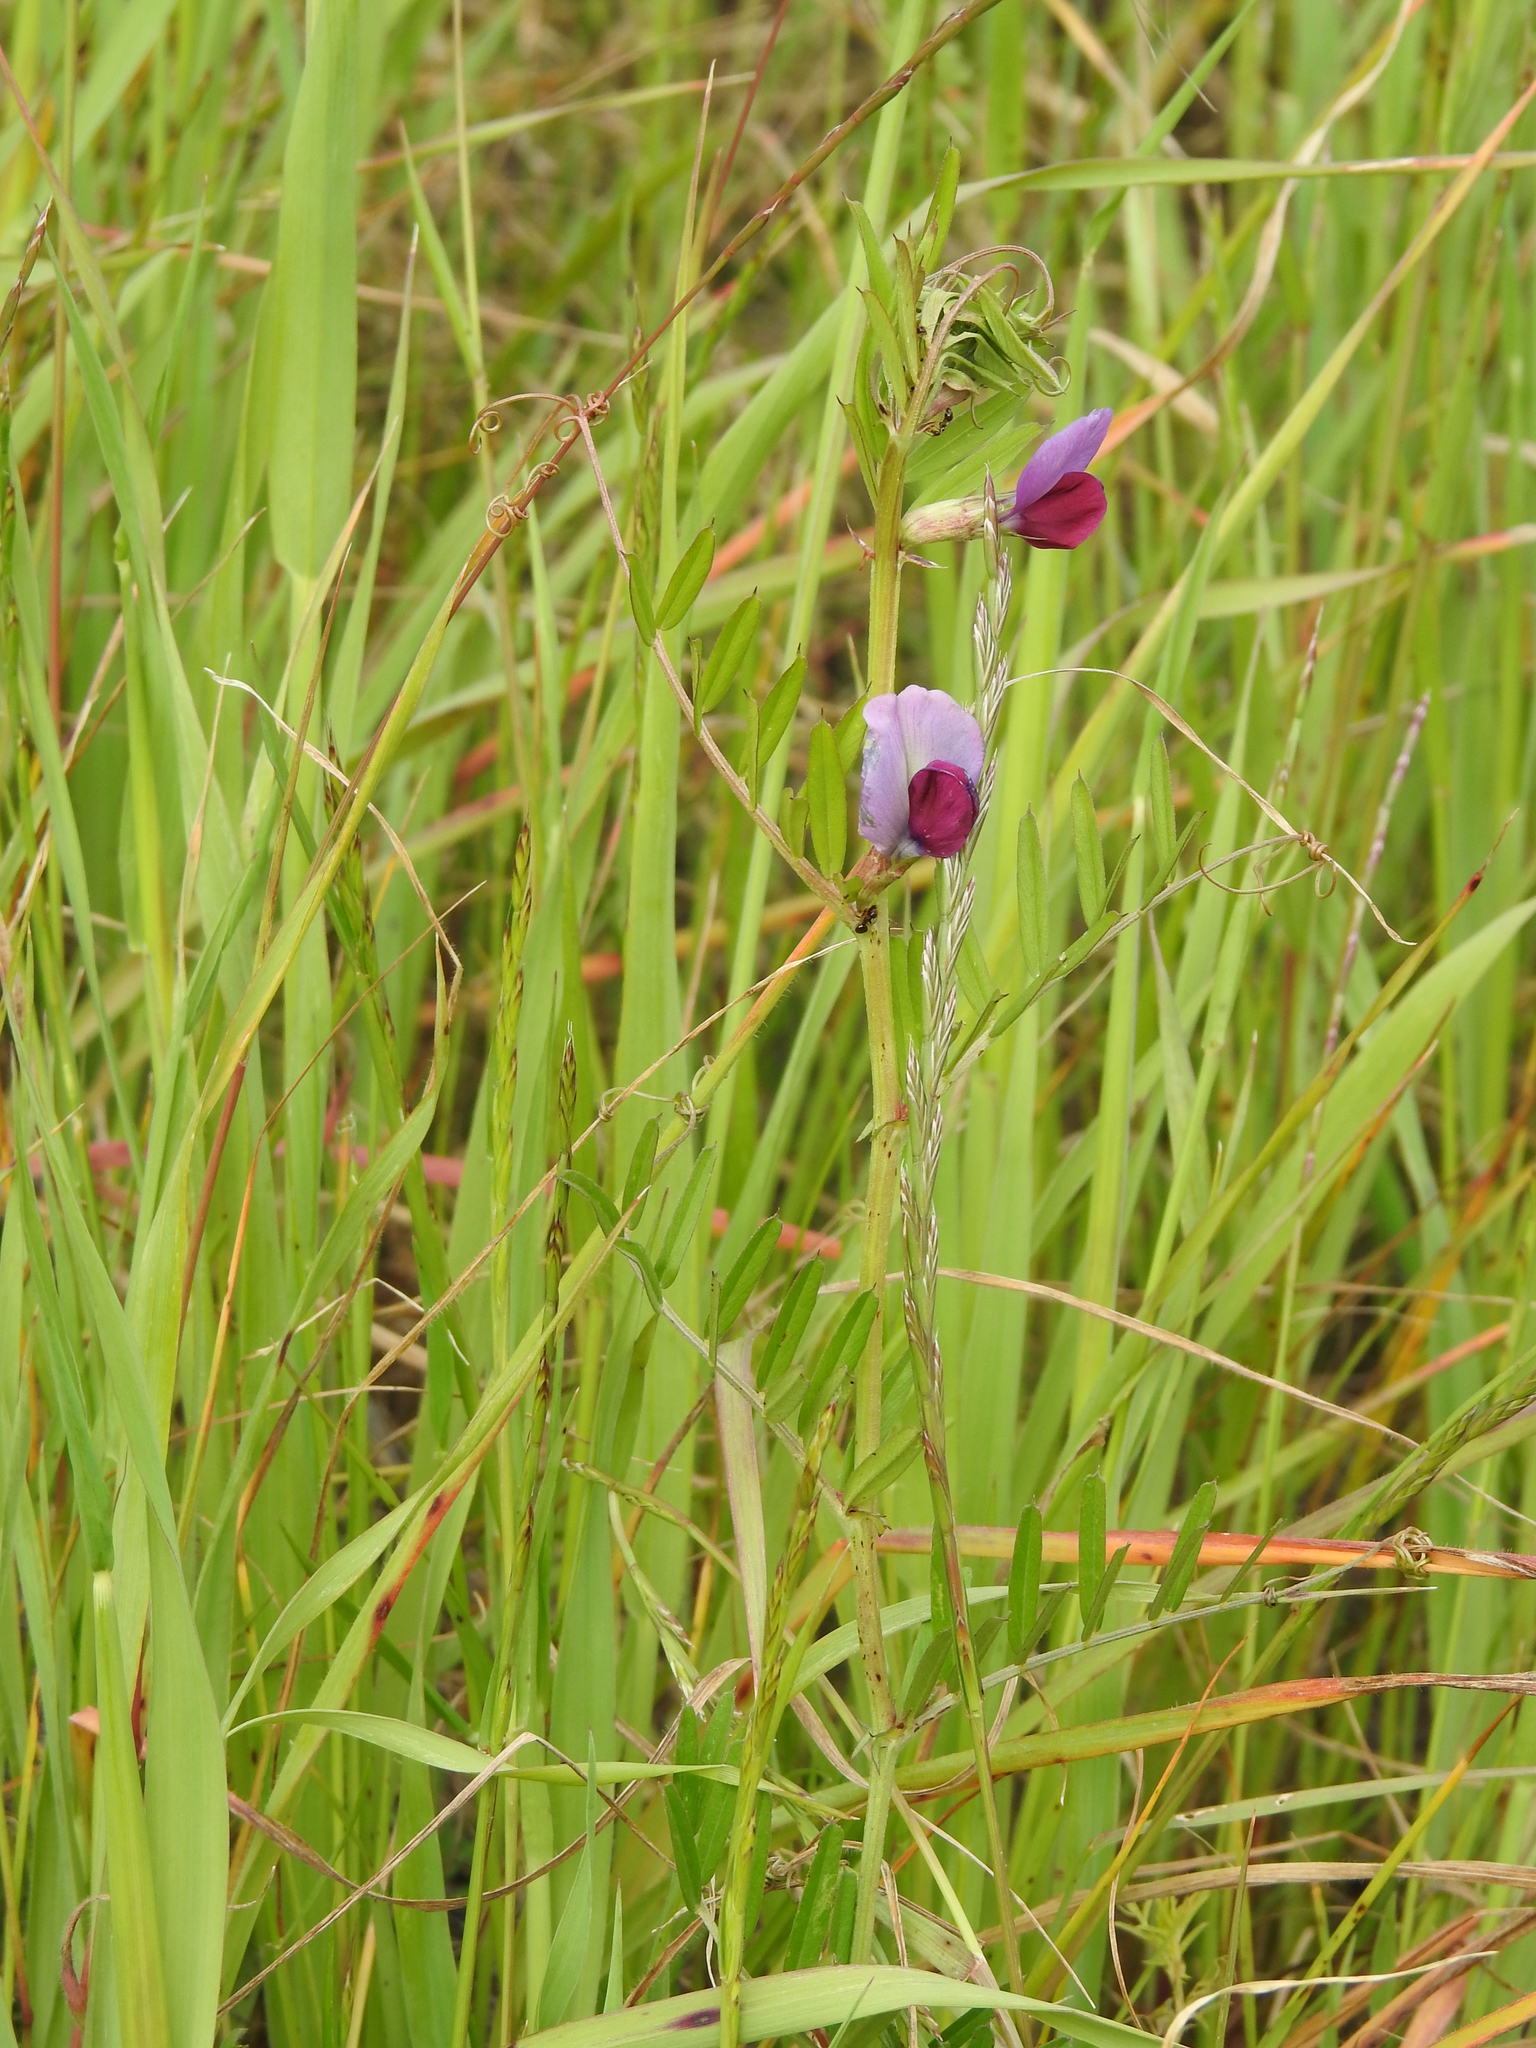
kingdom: Plantae
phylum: Tracheophyta
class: Magnoliopsida
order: Fabales
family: Fabaceae
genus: Vicia
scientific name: Vicia sativa
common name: Garden vetch
